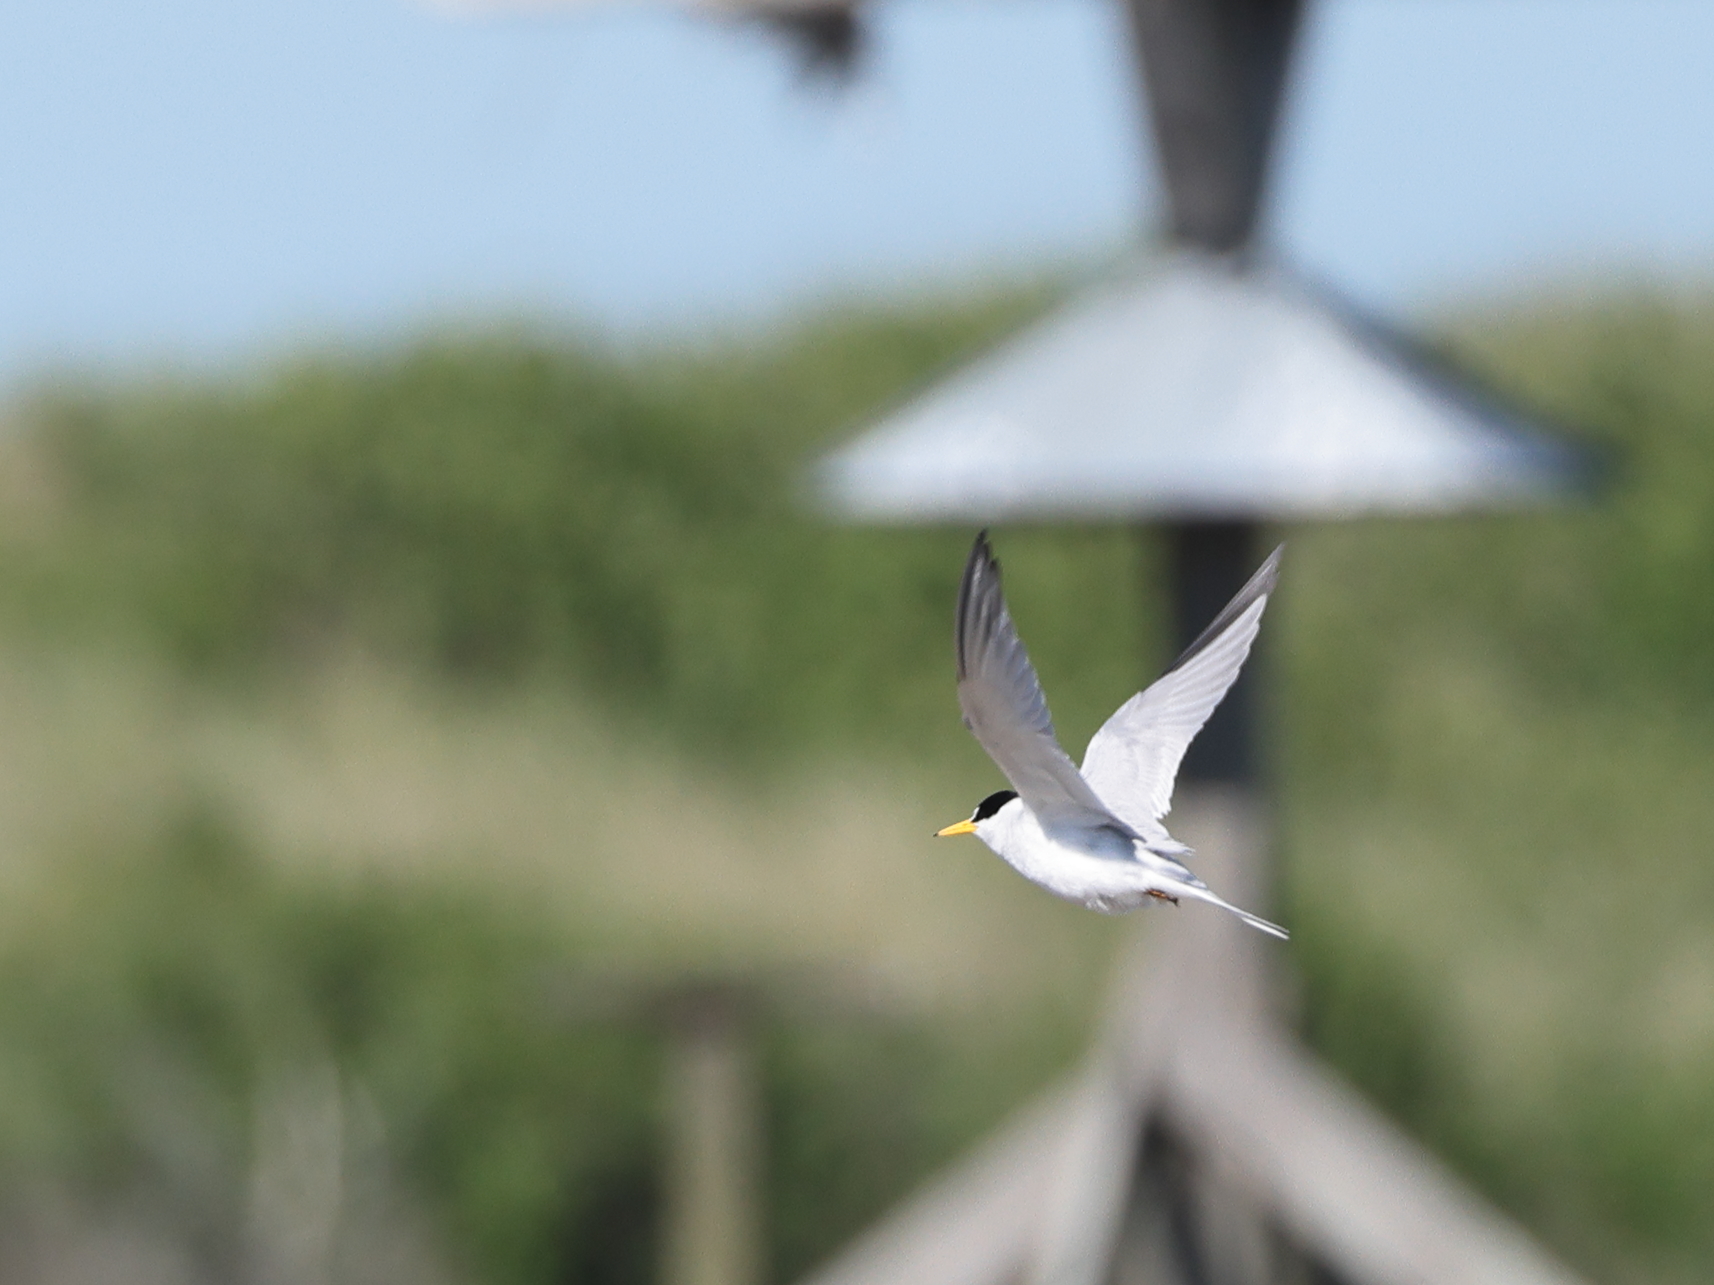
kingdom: Animalia
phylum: Chordata
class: Aves
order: Charadriiformes
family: Laridae
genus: Sternula
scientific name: Sternula antillarum
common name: Least tern
